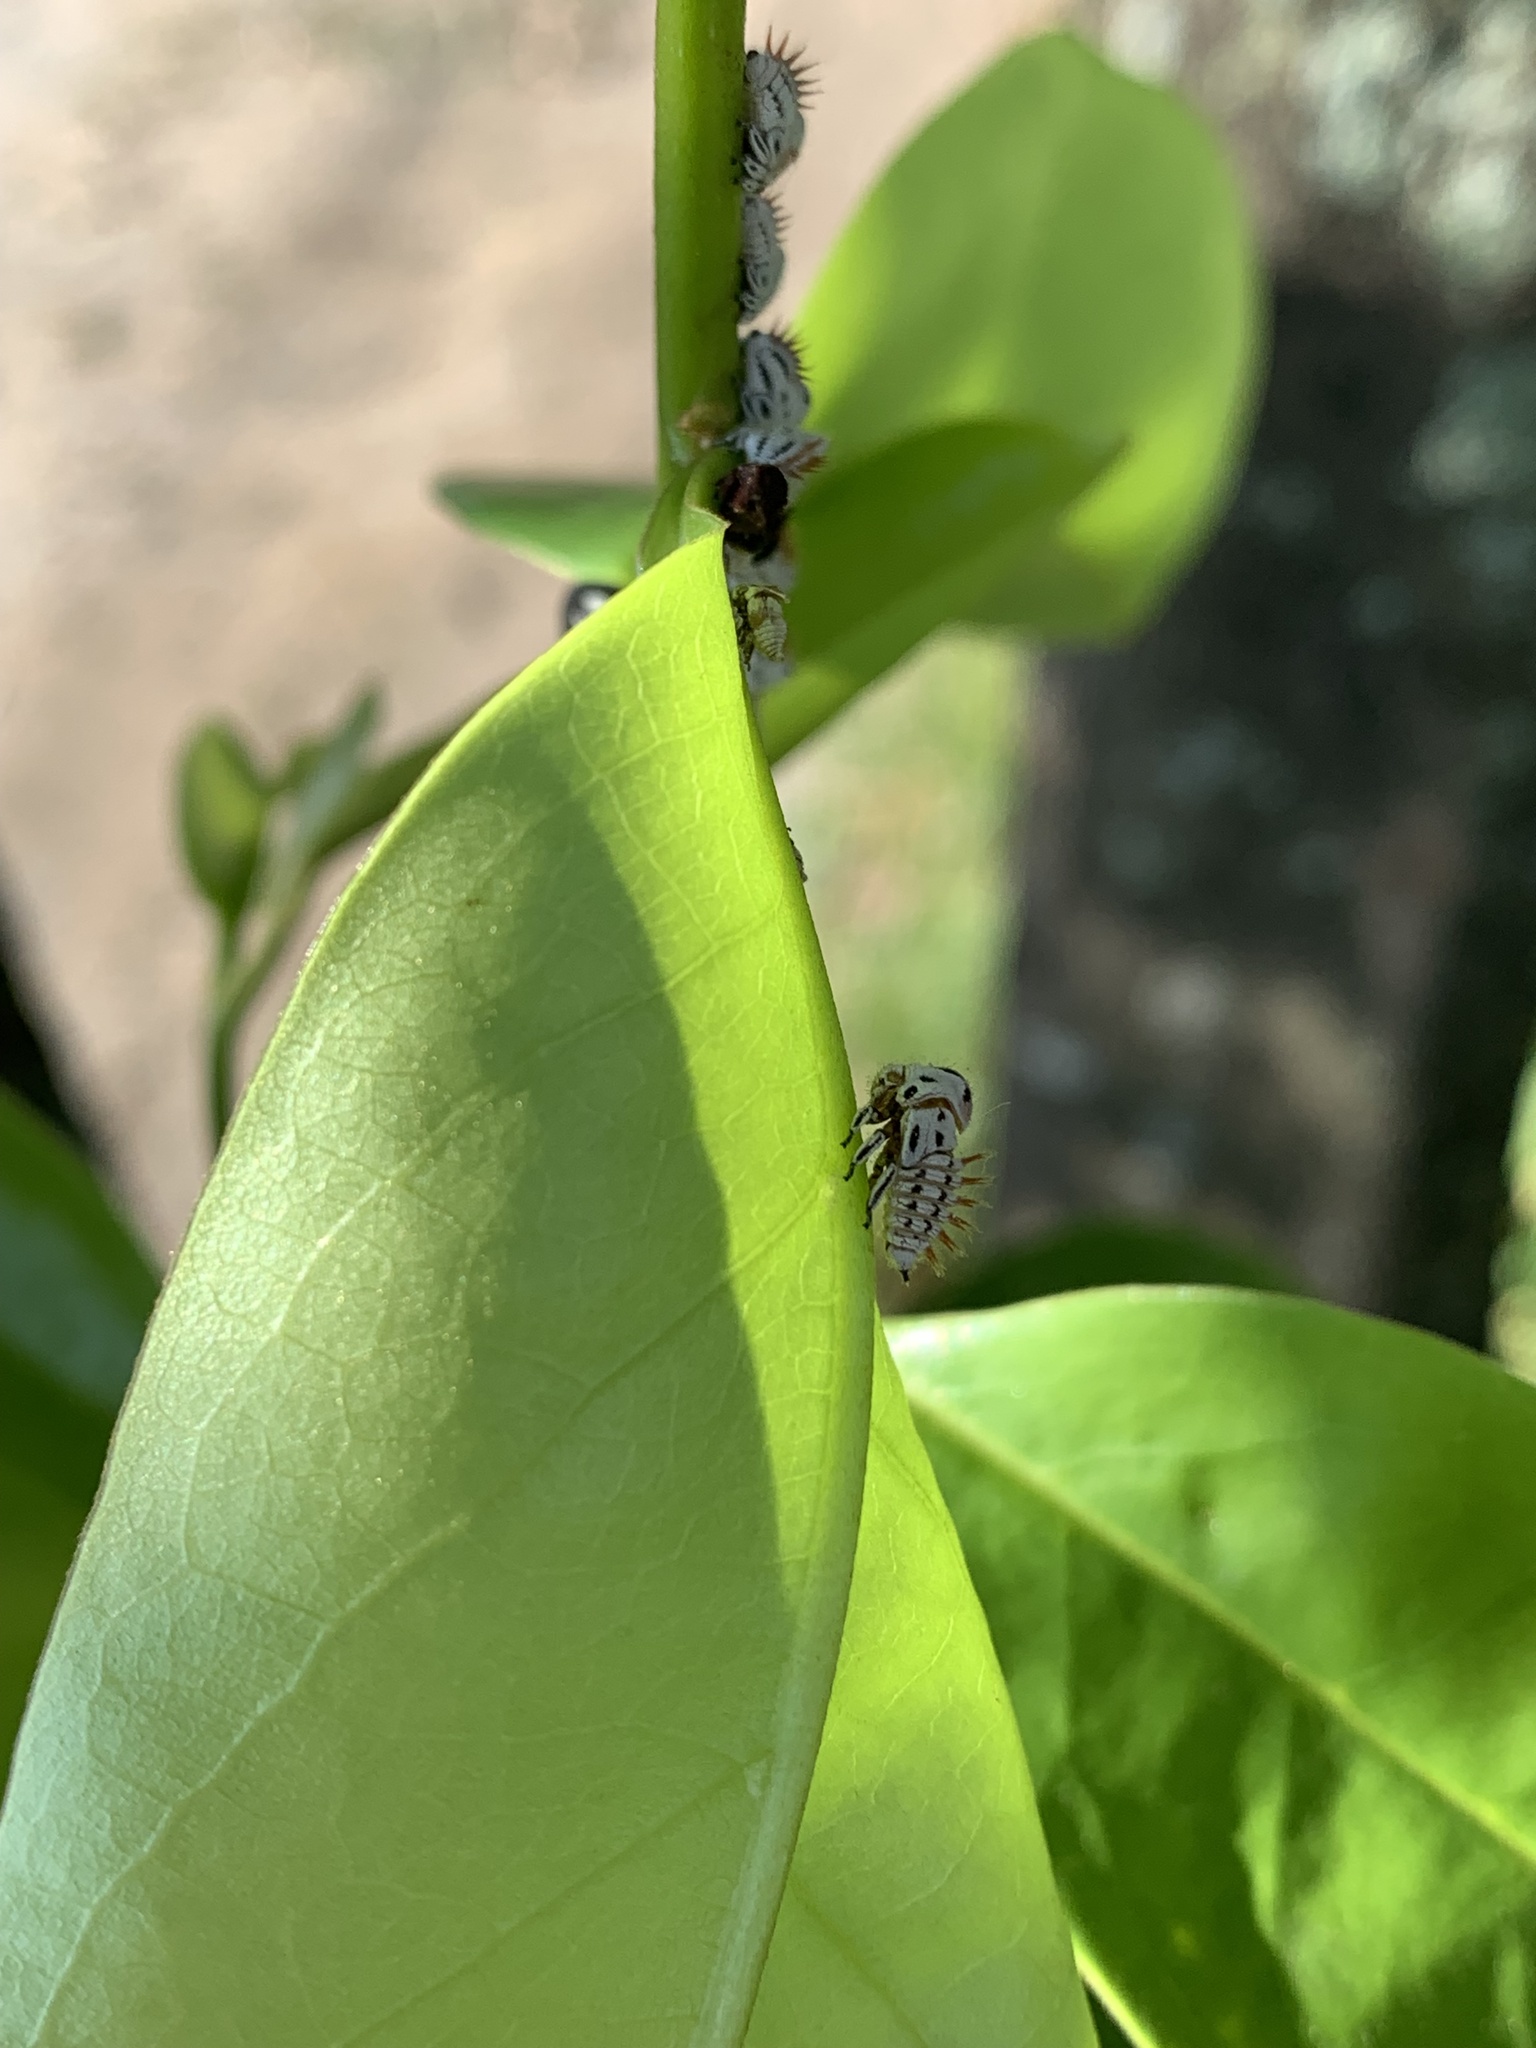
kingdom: Animalia
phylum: Arthropoda
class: Insecta
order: Hemiptera
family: Membracidae
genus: Membracis
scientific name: Membracis
